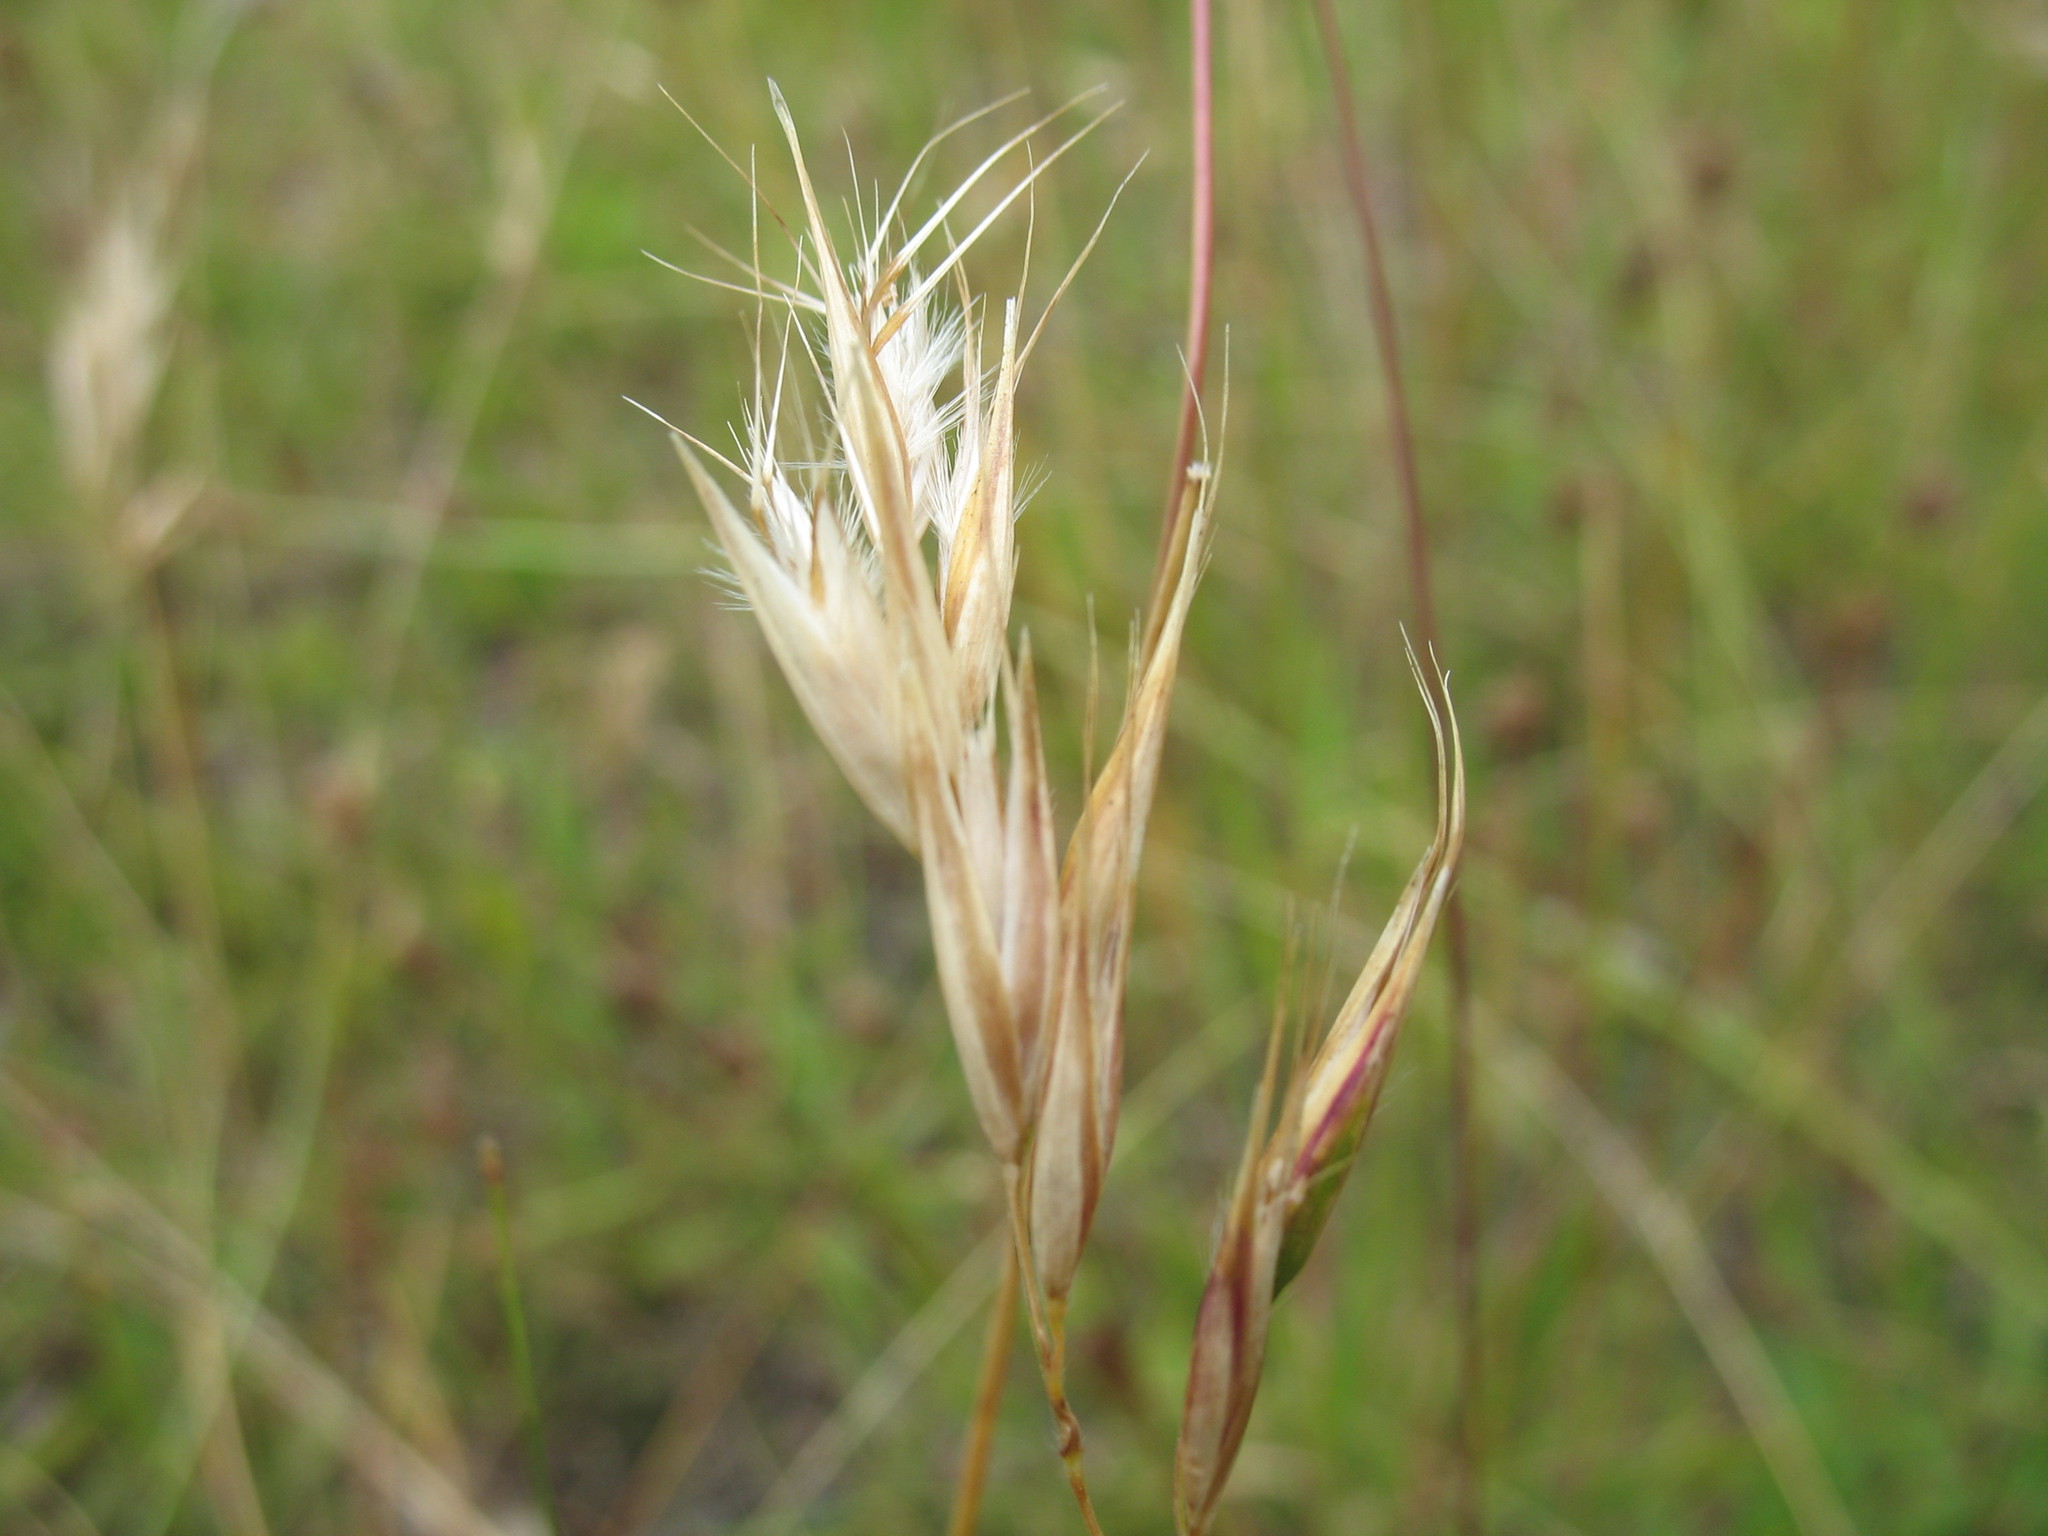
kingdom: Plantae
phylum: Tracheophyta
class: Liliopsida
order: Poales
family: Poaceae
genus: Rytidosperma
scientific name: Rytidosperma laeve
